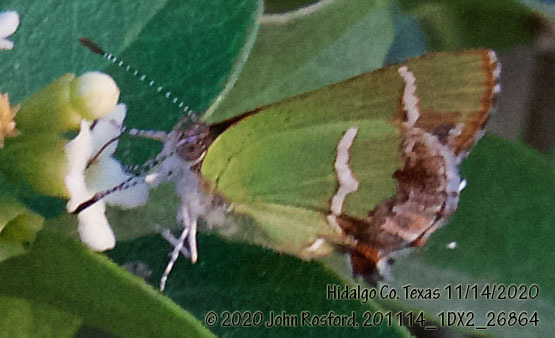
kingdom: Animalia
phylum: Arthropoda
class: Insecta
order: Lepidoptera
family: Lycaenidae
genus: Chlorostrymon
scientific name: Chlorostrymon simaethis
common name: Silver-banded hairstreak
